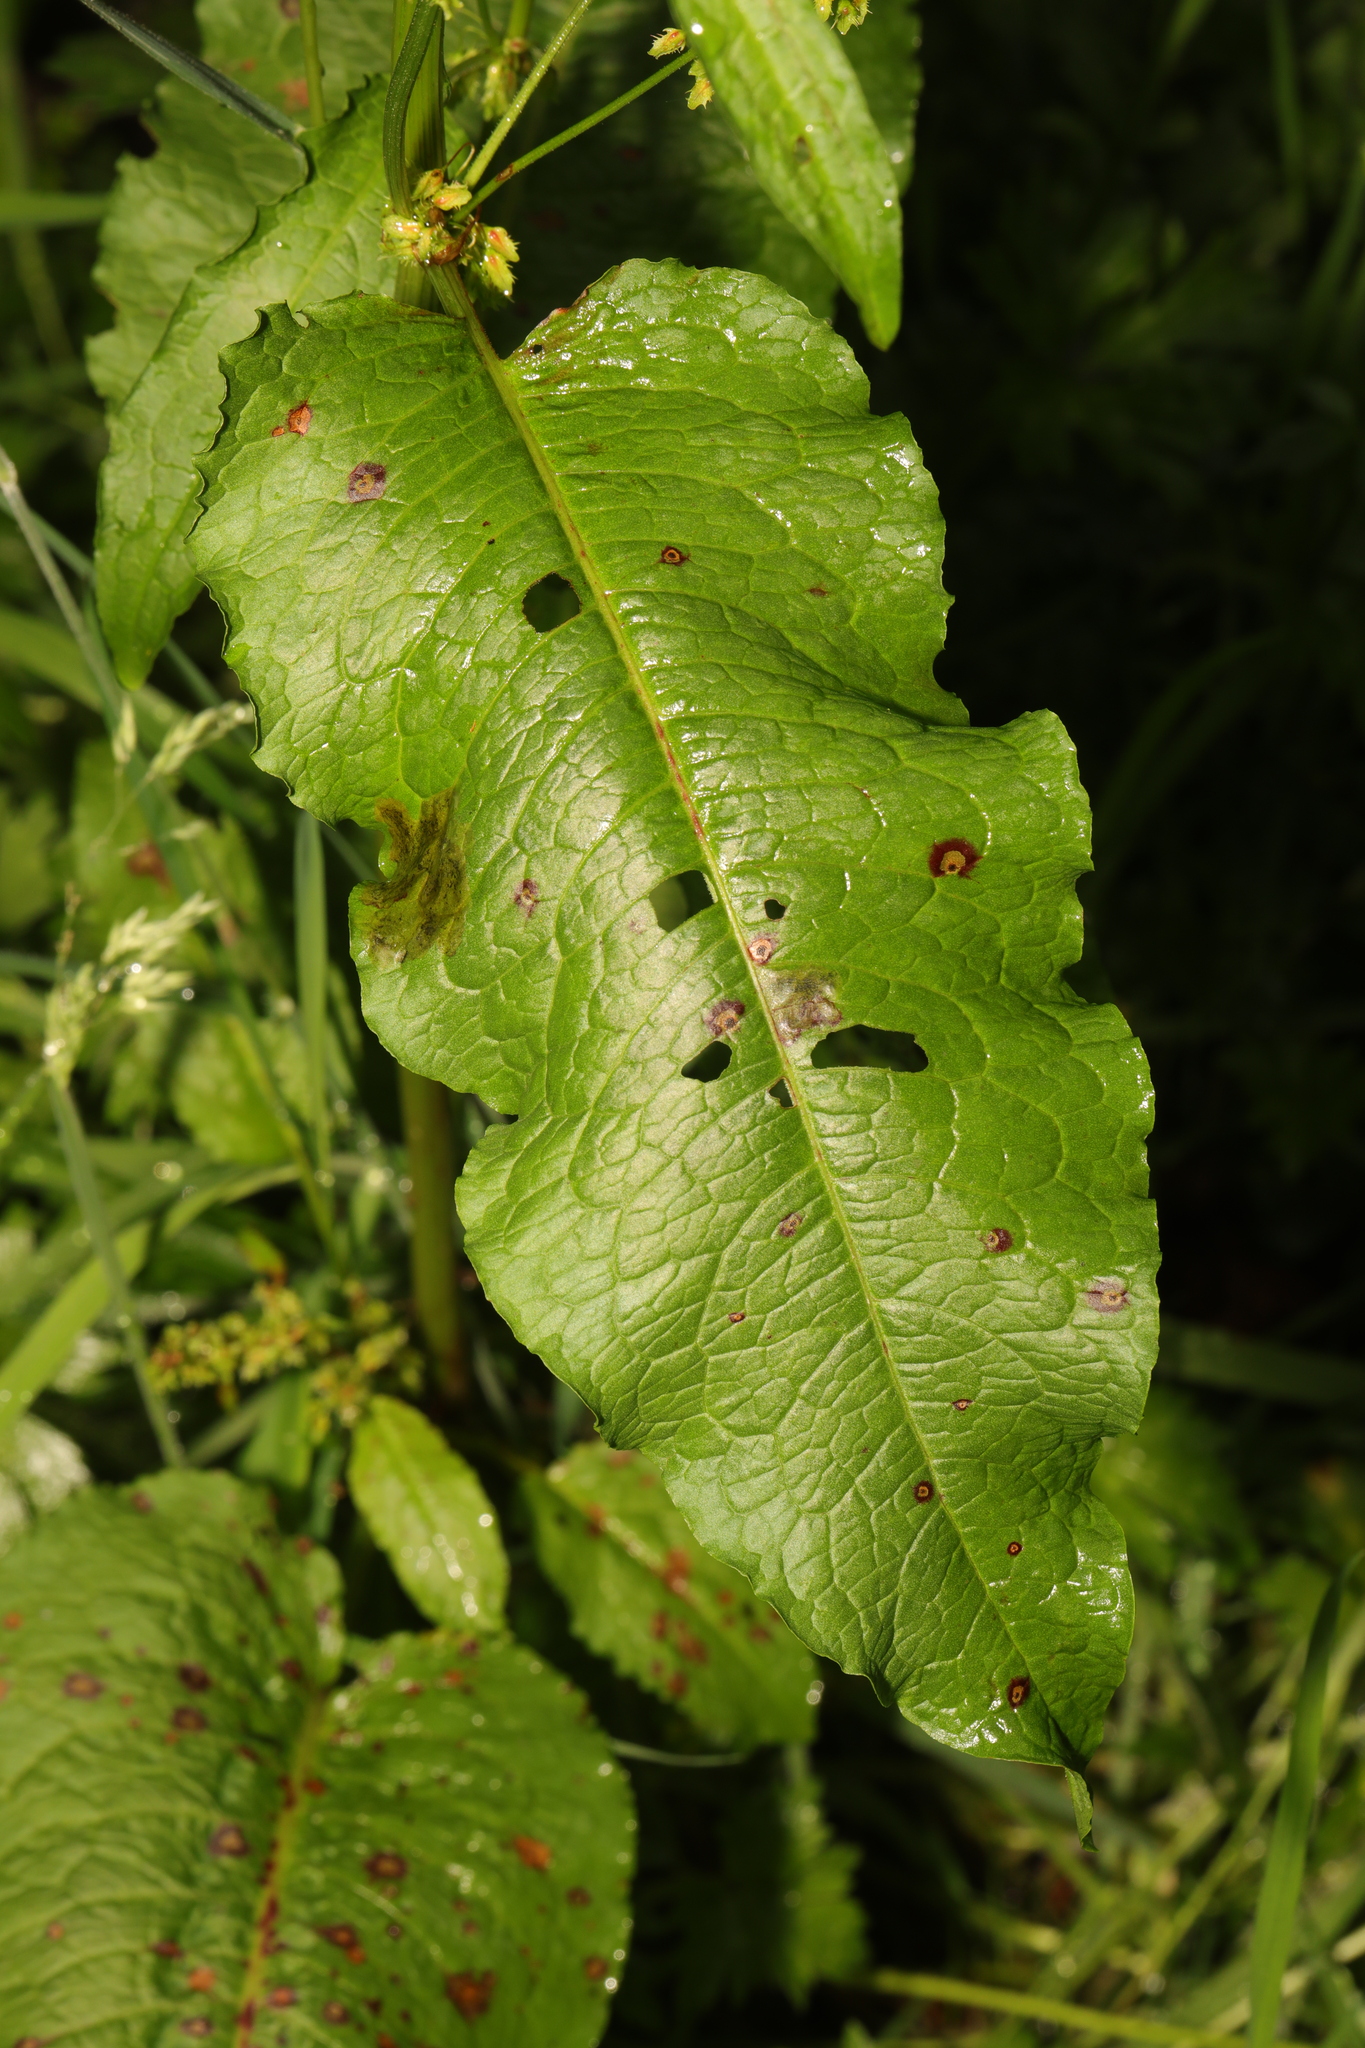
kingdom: Plantae
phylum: Tracheophyta
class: Magnoliopsida
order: Caryophyllales
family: Polygonaceae
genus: Rumex
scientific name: Rumex obtusifolius
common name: Bitter dock
